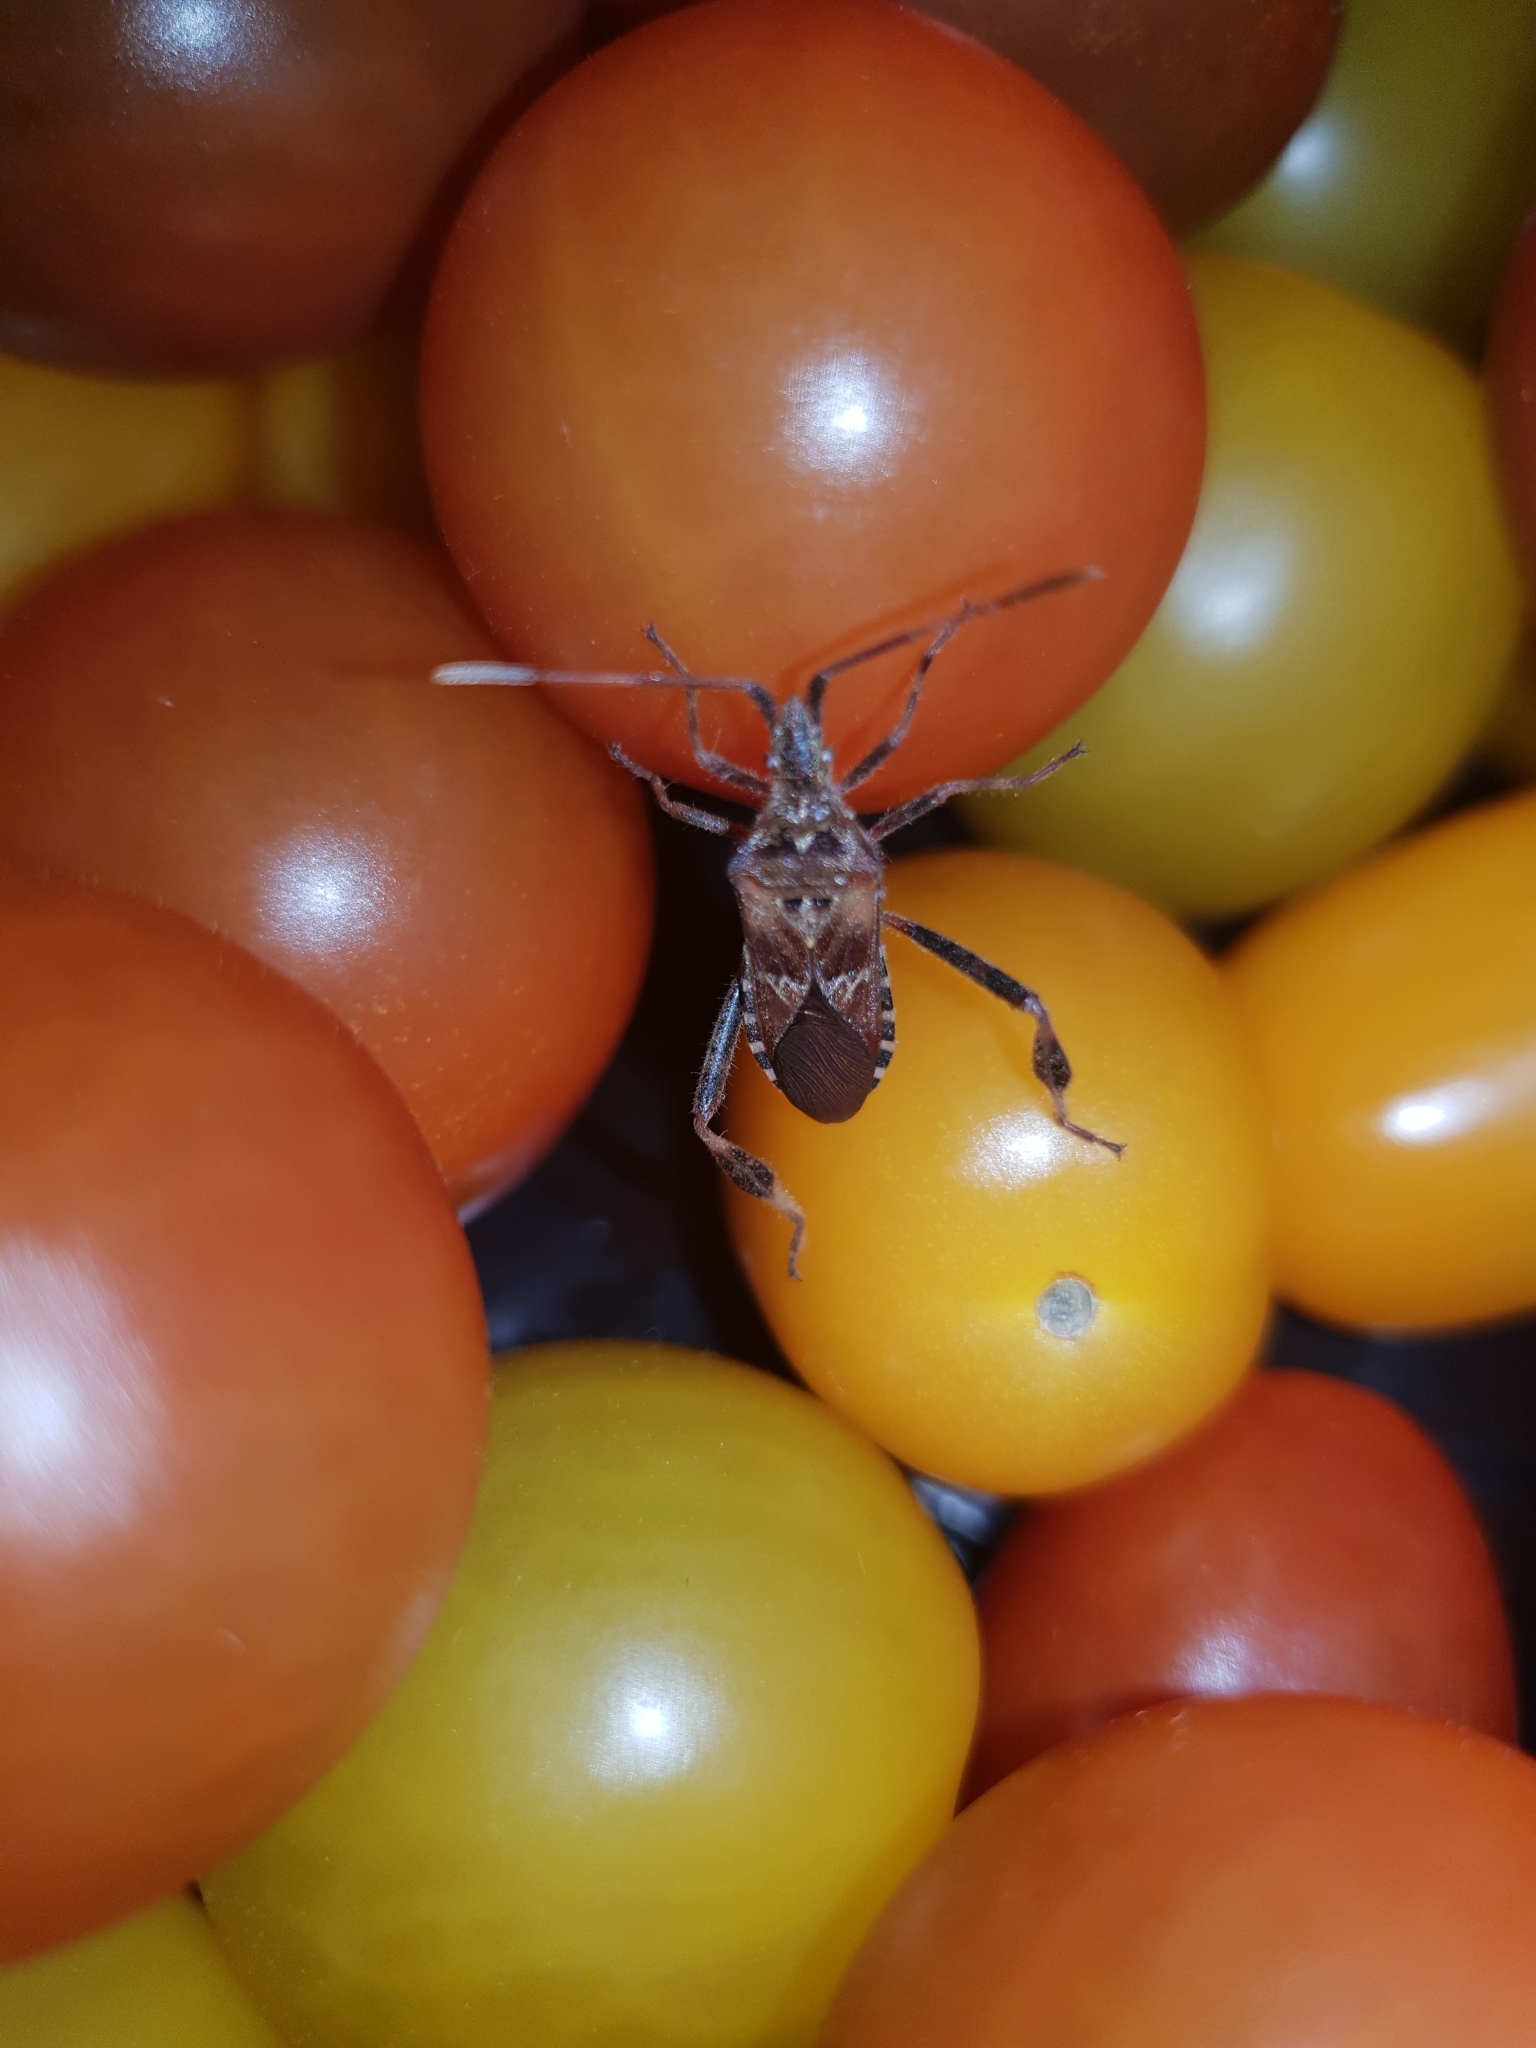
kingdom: Animalia
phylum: Arthropoda
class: Insecta
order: Hemiptera
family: Coreidae
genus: Leptoglossus
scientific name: Leptoglossus occidentalis
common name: Western conifer-seed bug
